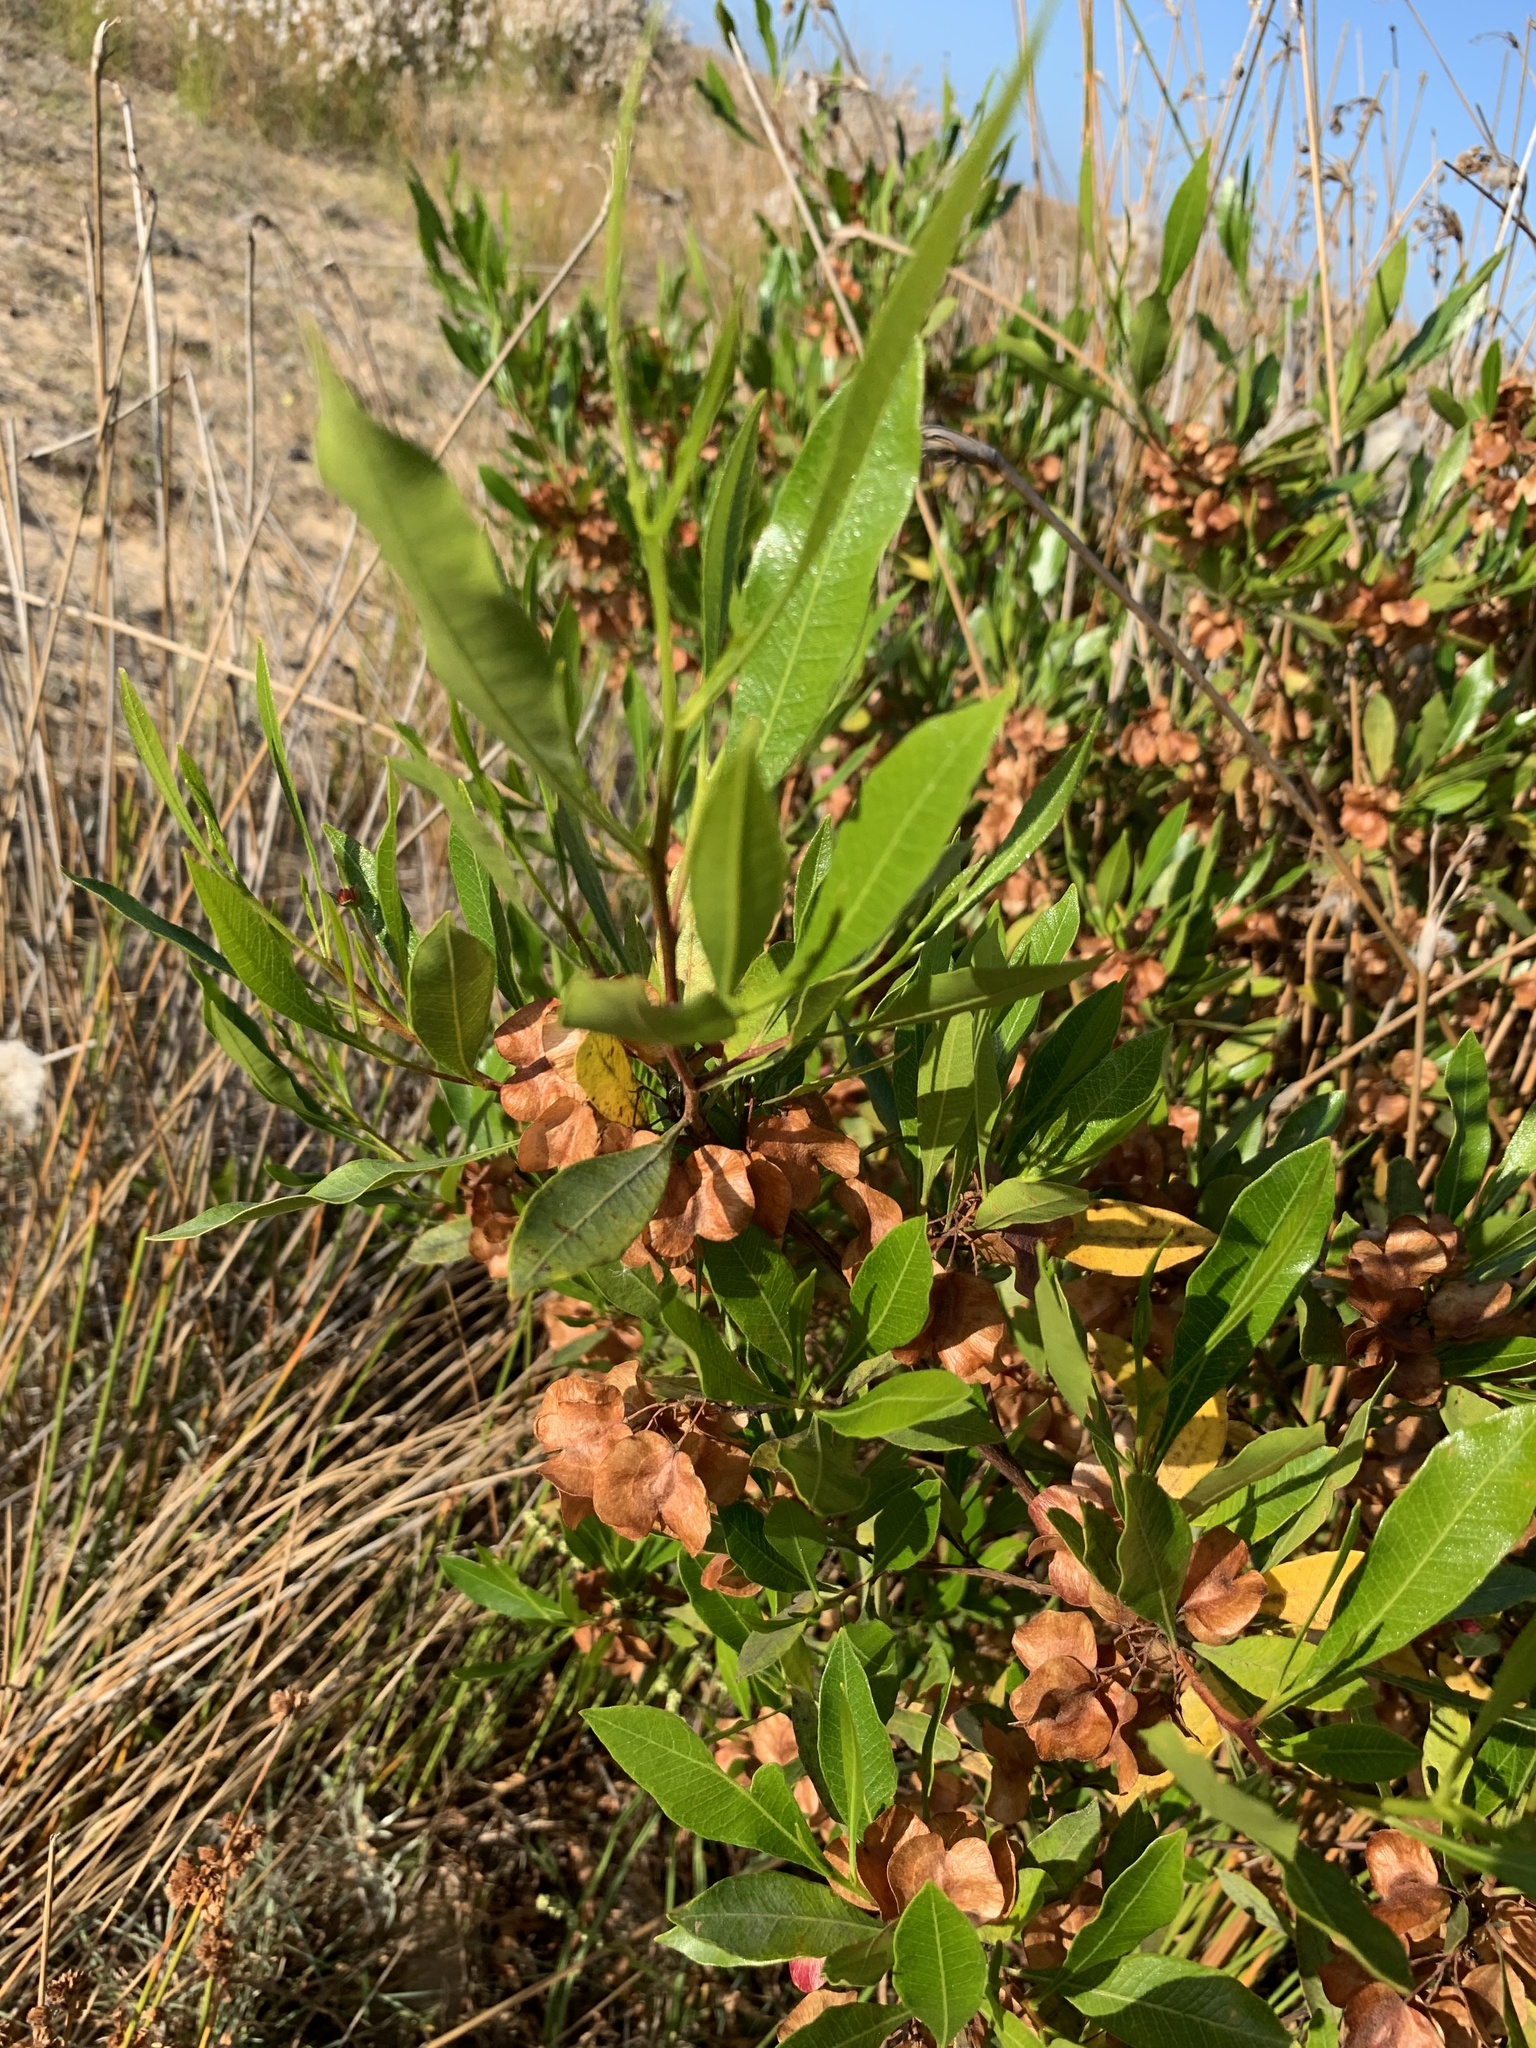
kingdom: Plantae
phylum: Tracheophyta
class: Magnoliopsida
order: Sapindales
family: Sapindaceae
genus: Dodonaea
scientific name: Dodonaea viscosa
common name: Hopbush
